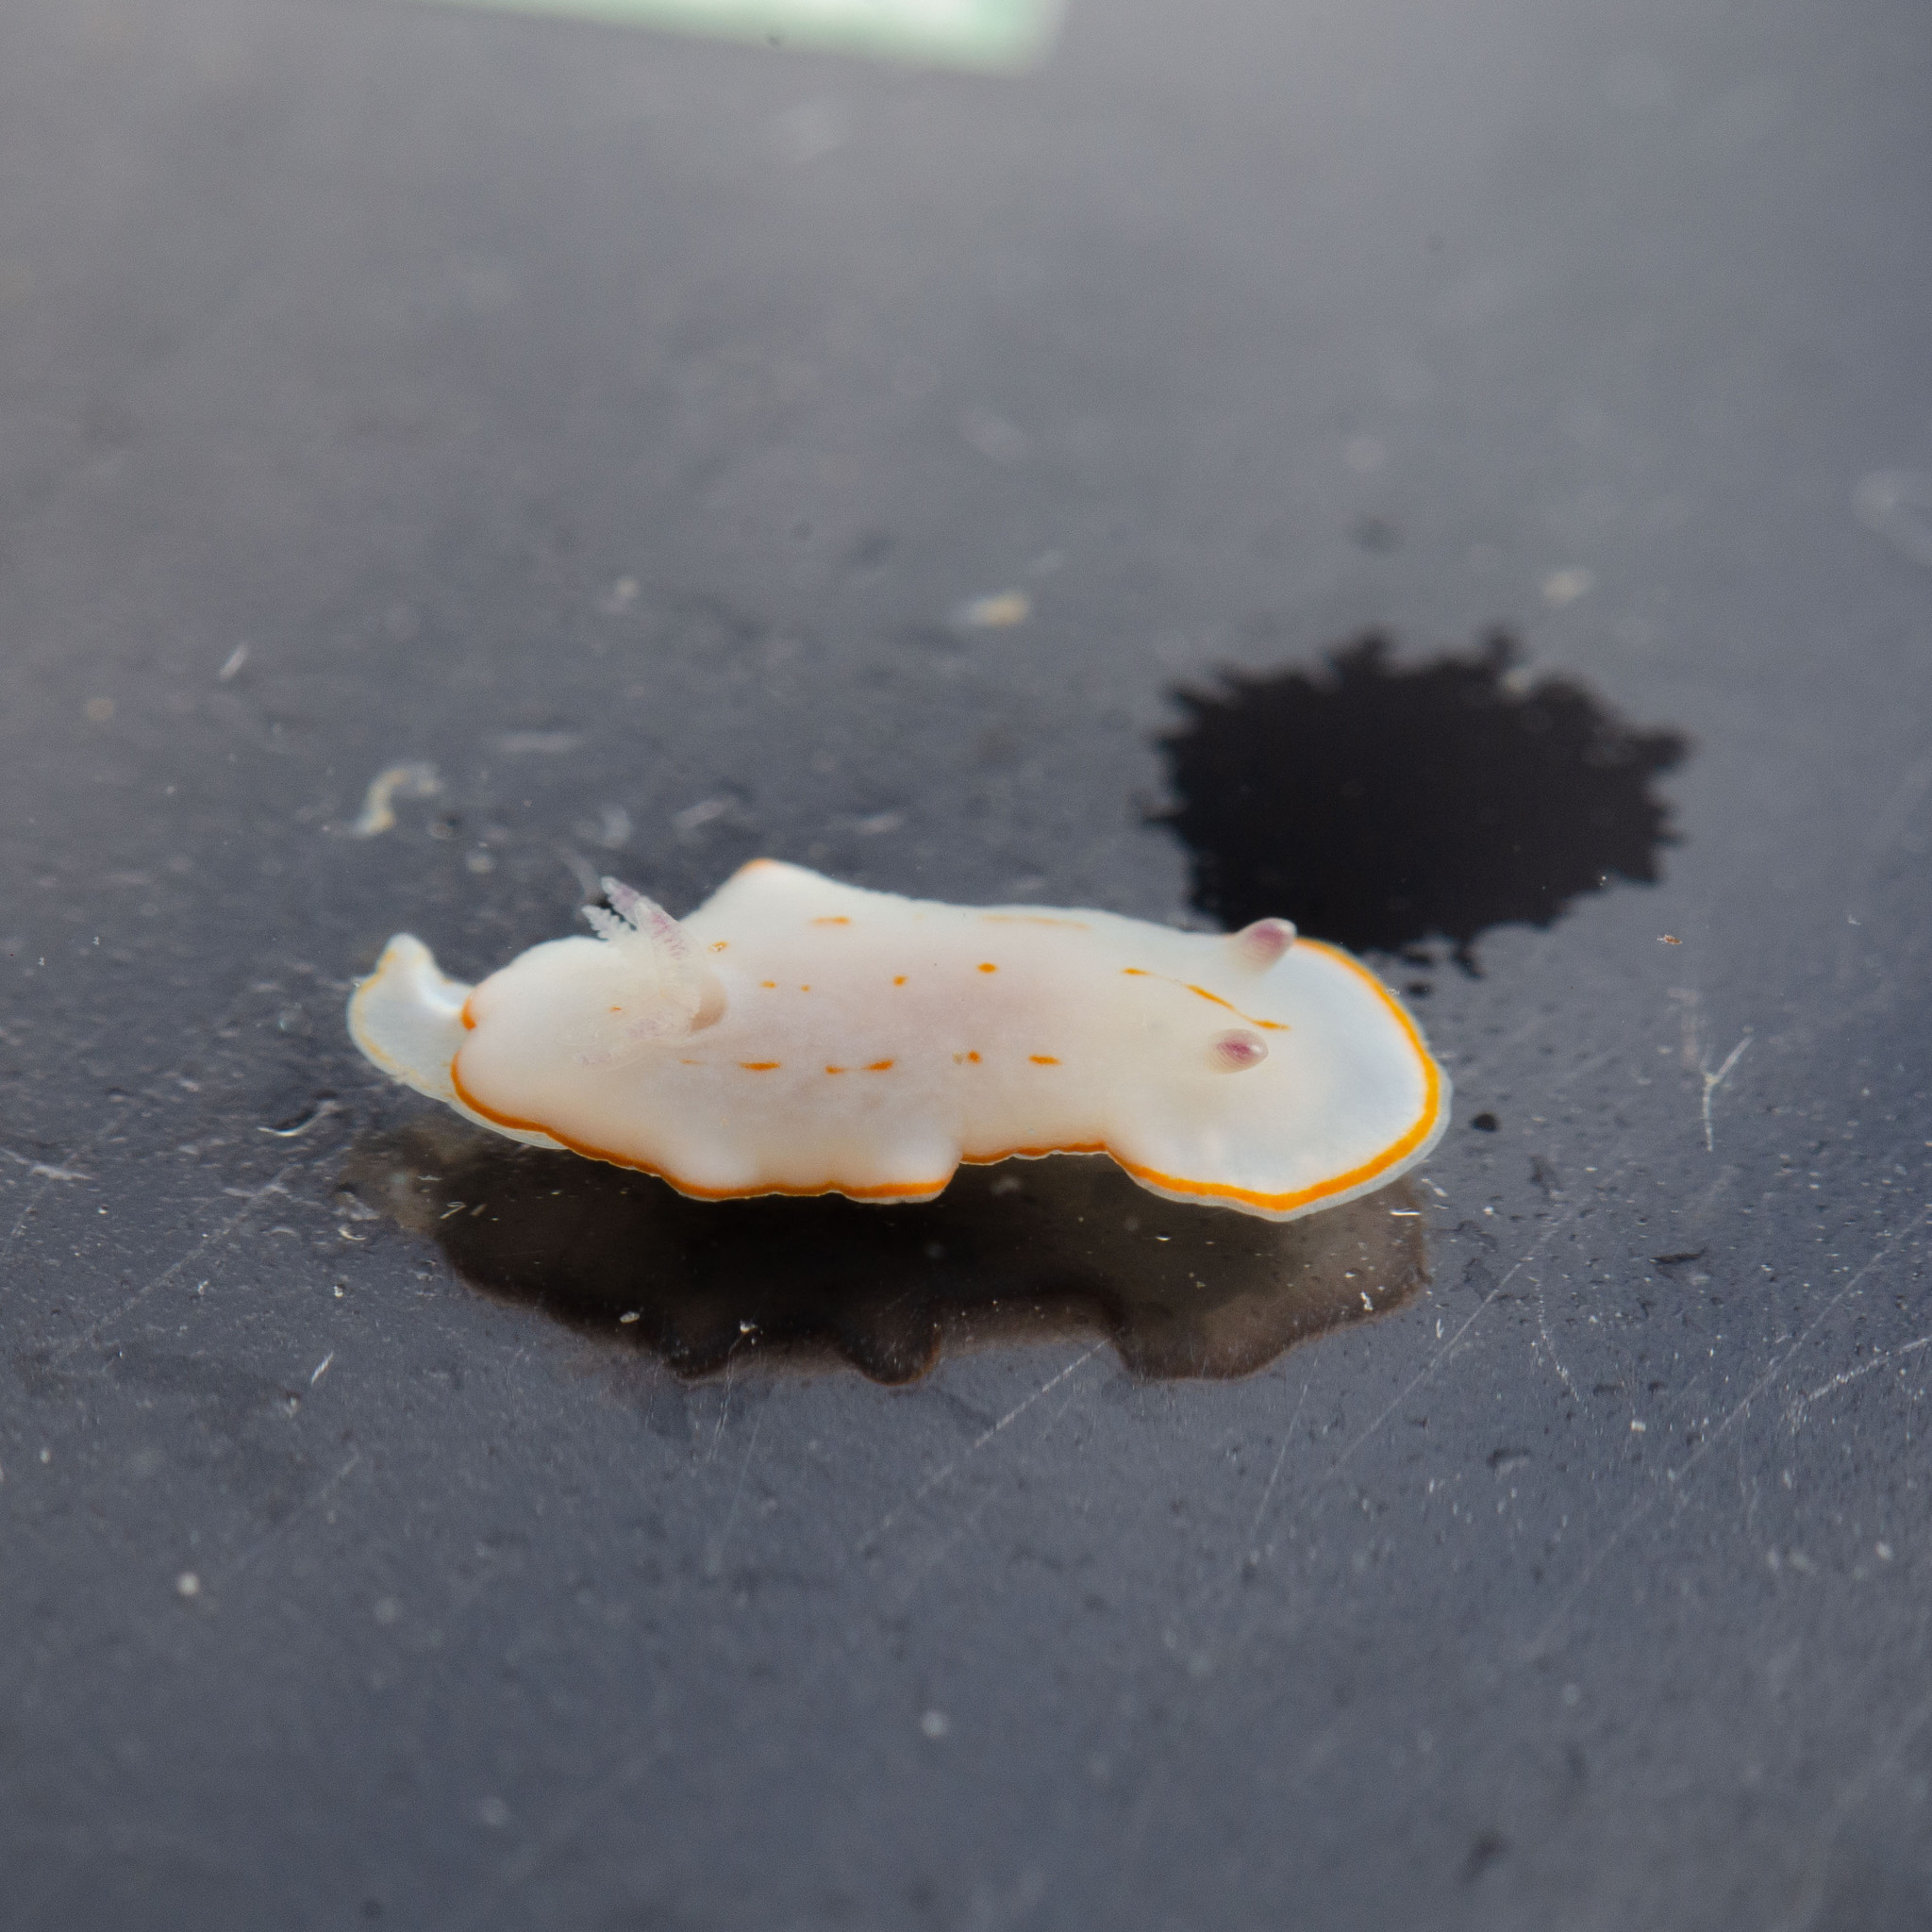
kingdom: Animalia
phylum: Mollusca
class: Gastropoda
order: Nudibranchia
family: Chromodorididae
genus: Felimida
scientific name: Felimida grahami
